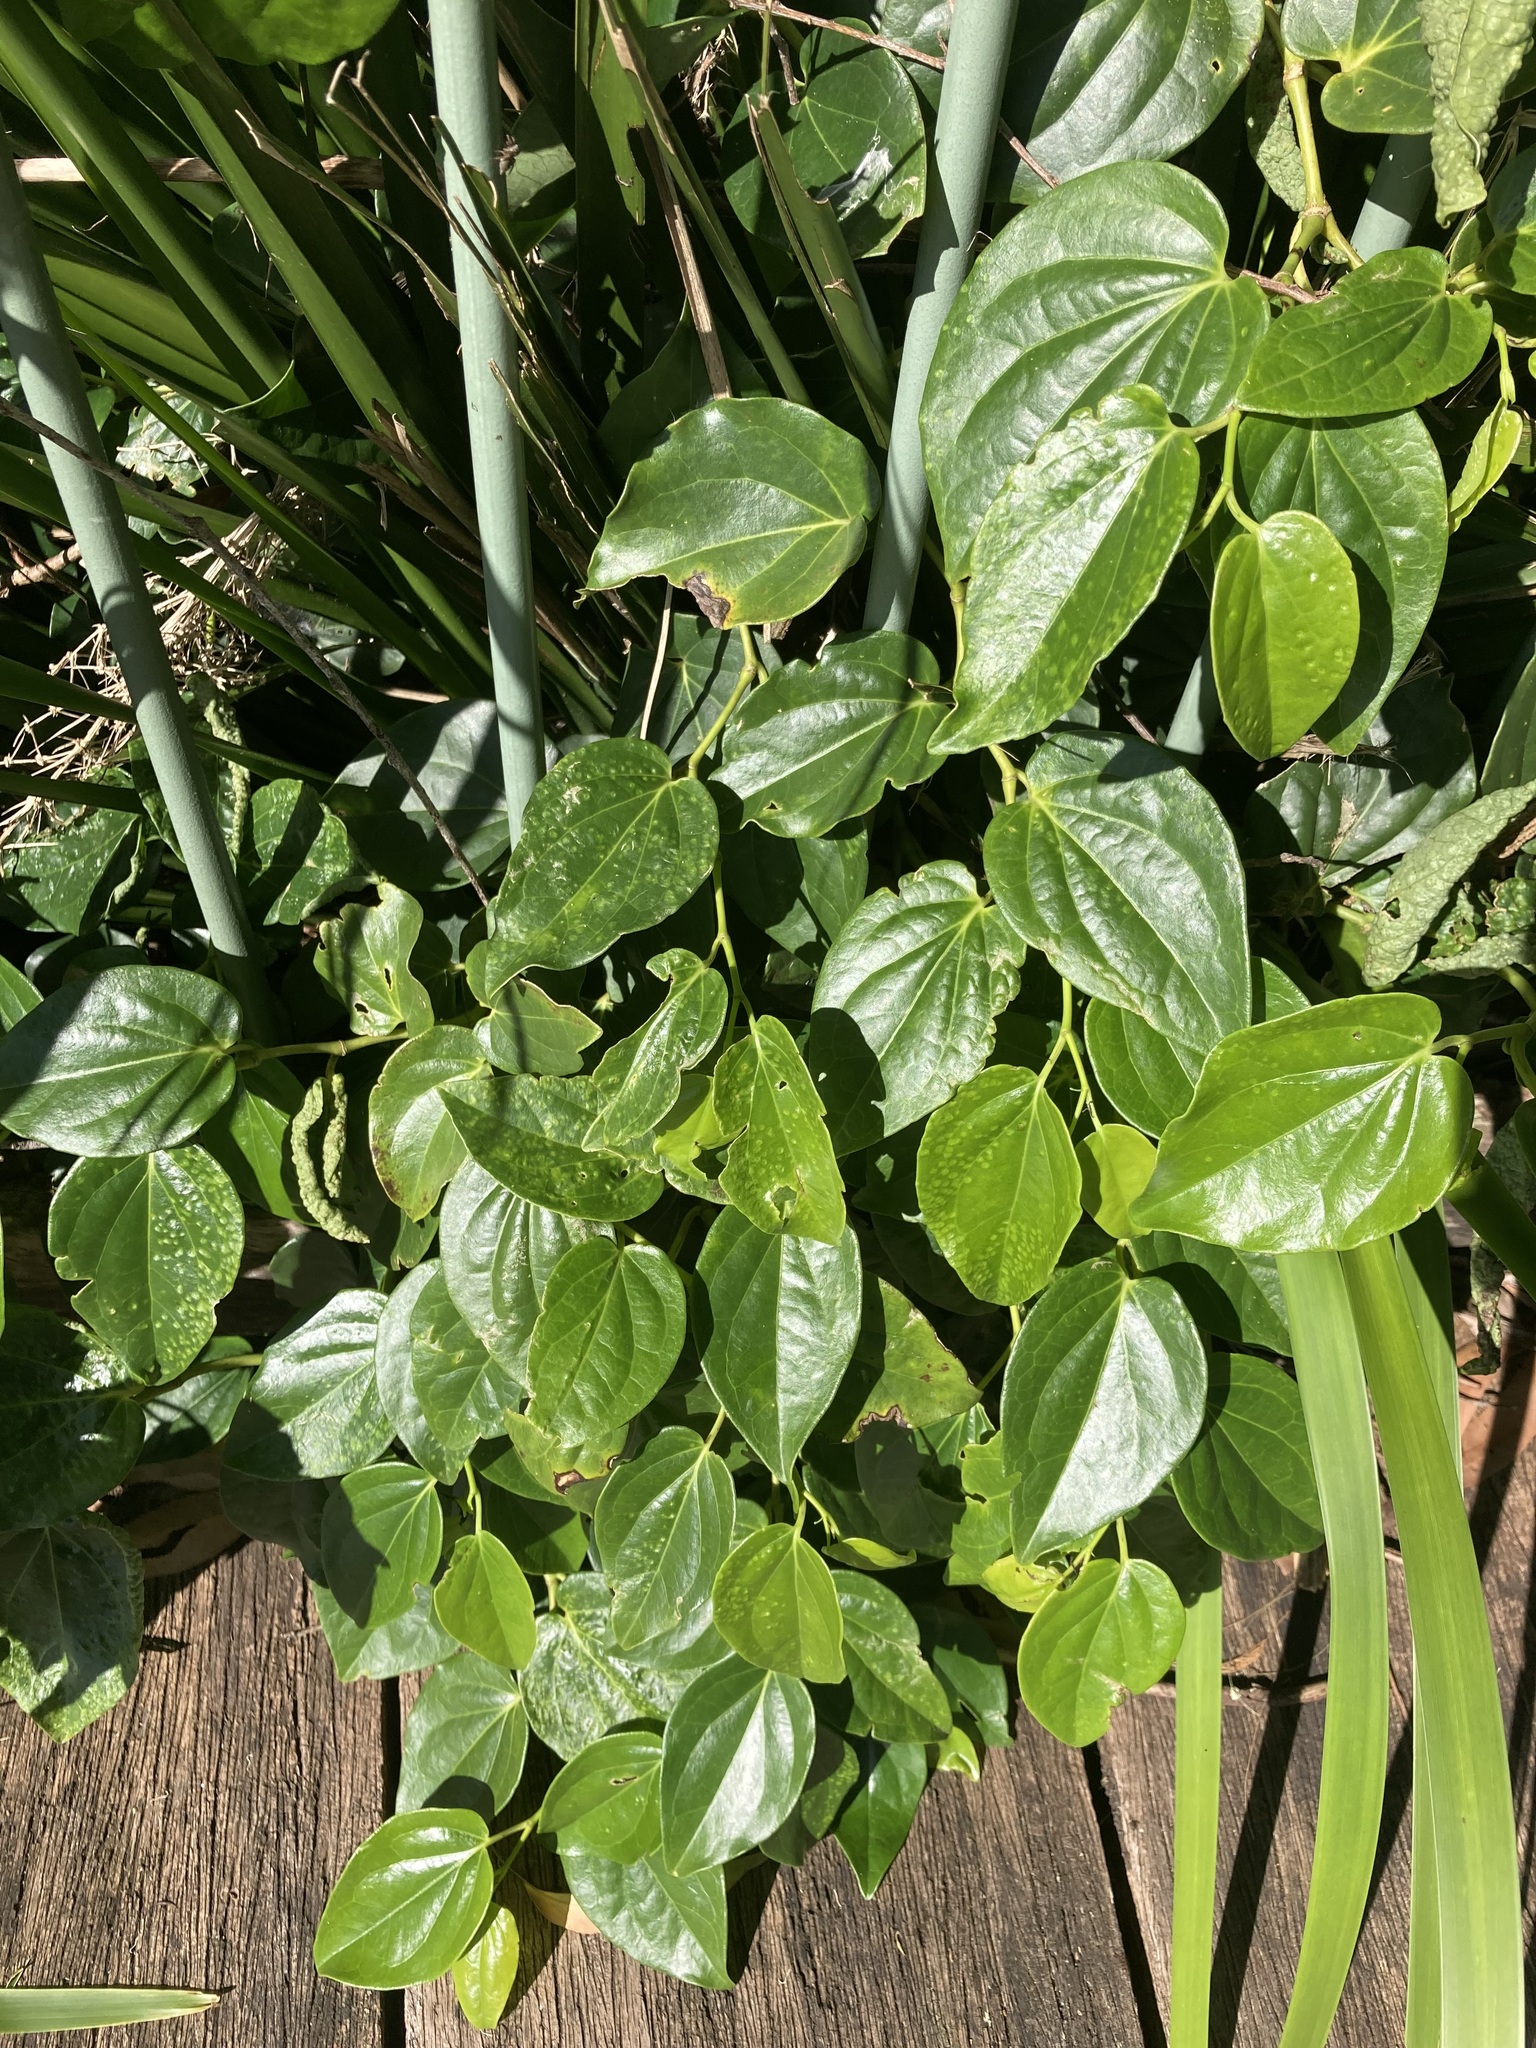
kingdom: Plantae
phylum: Tracheophyta
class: Magnoliopsida
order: Piperales
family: Piperaceae
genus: Piper
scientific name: Piper hederaceum
